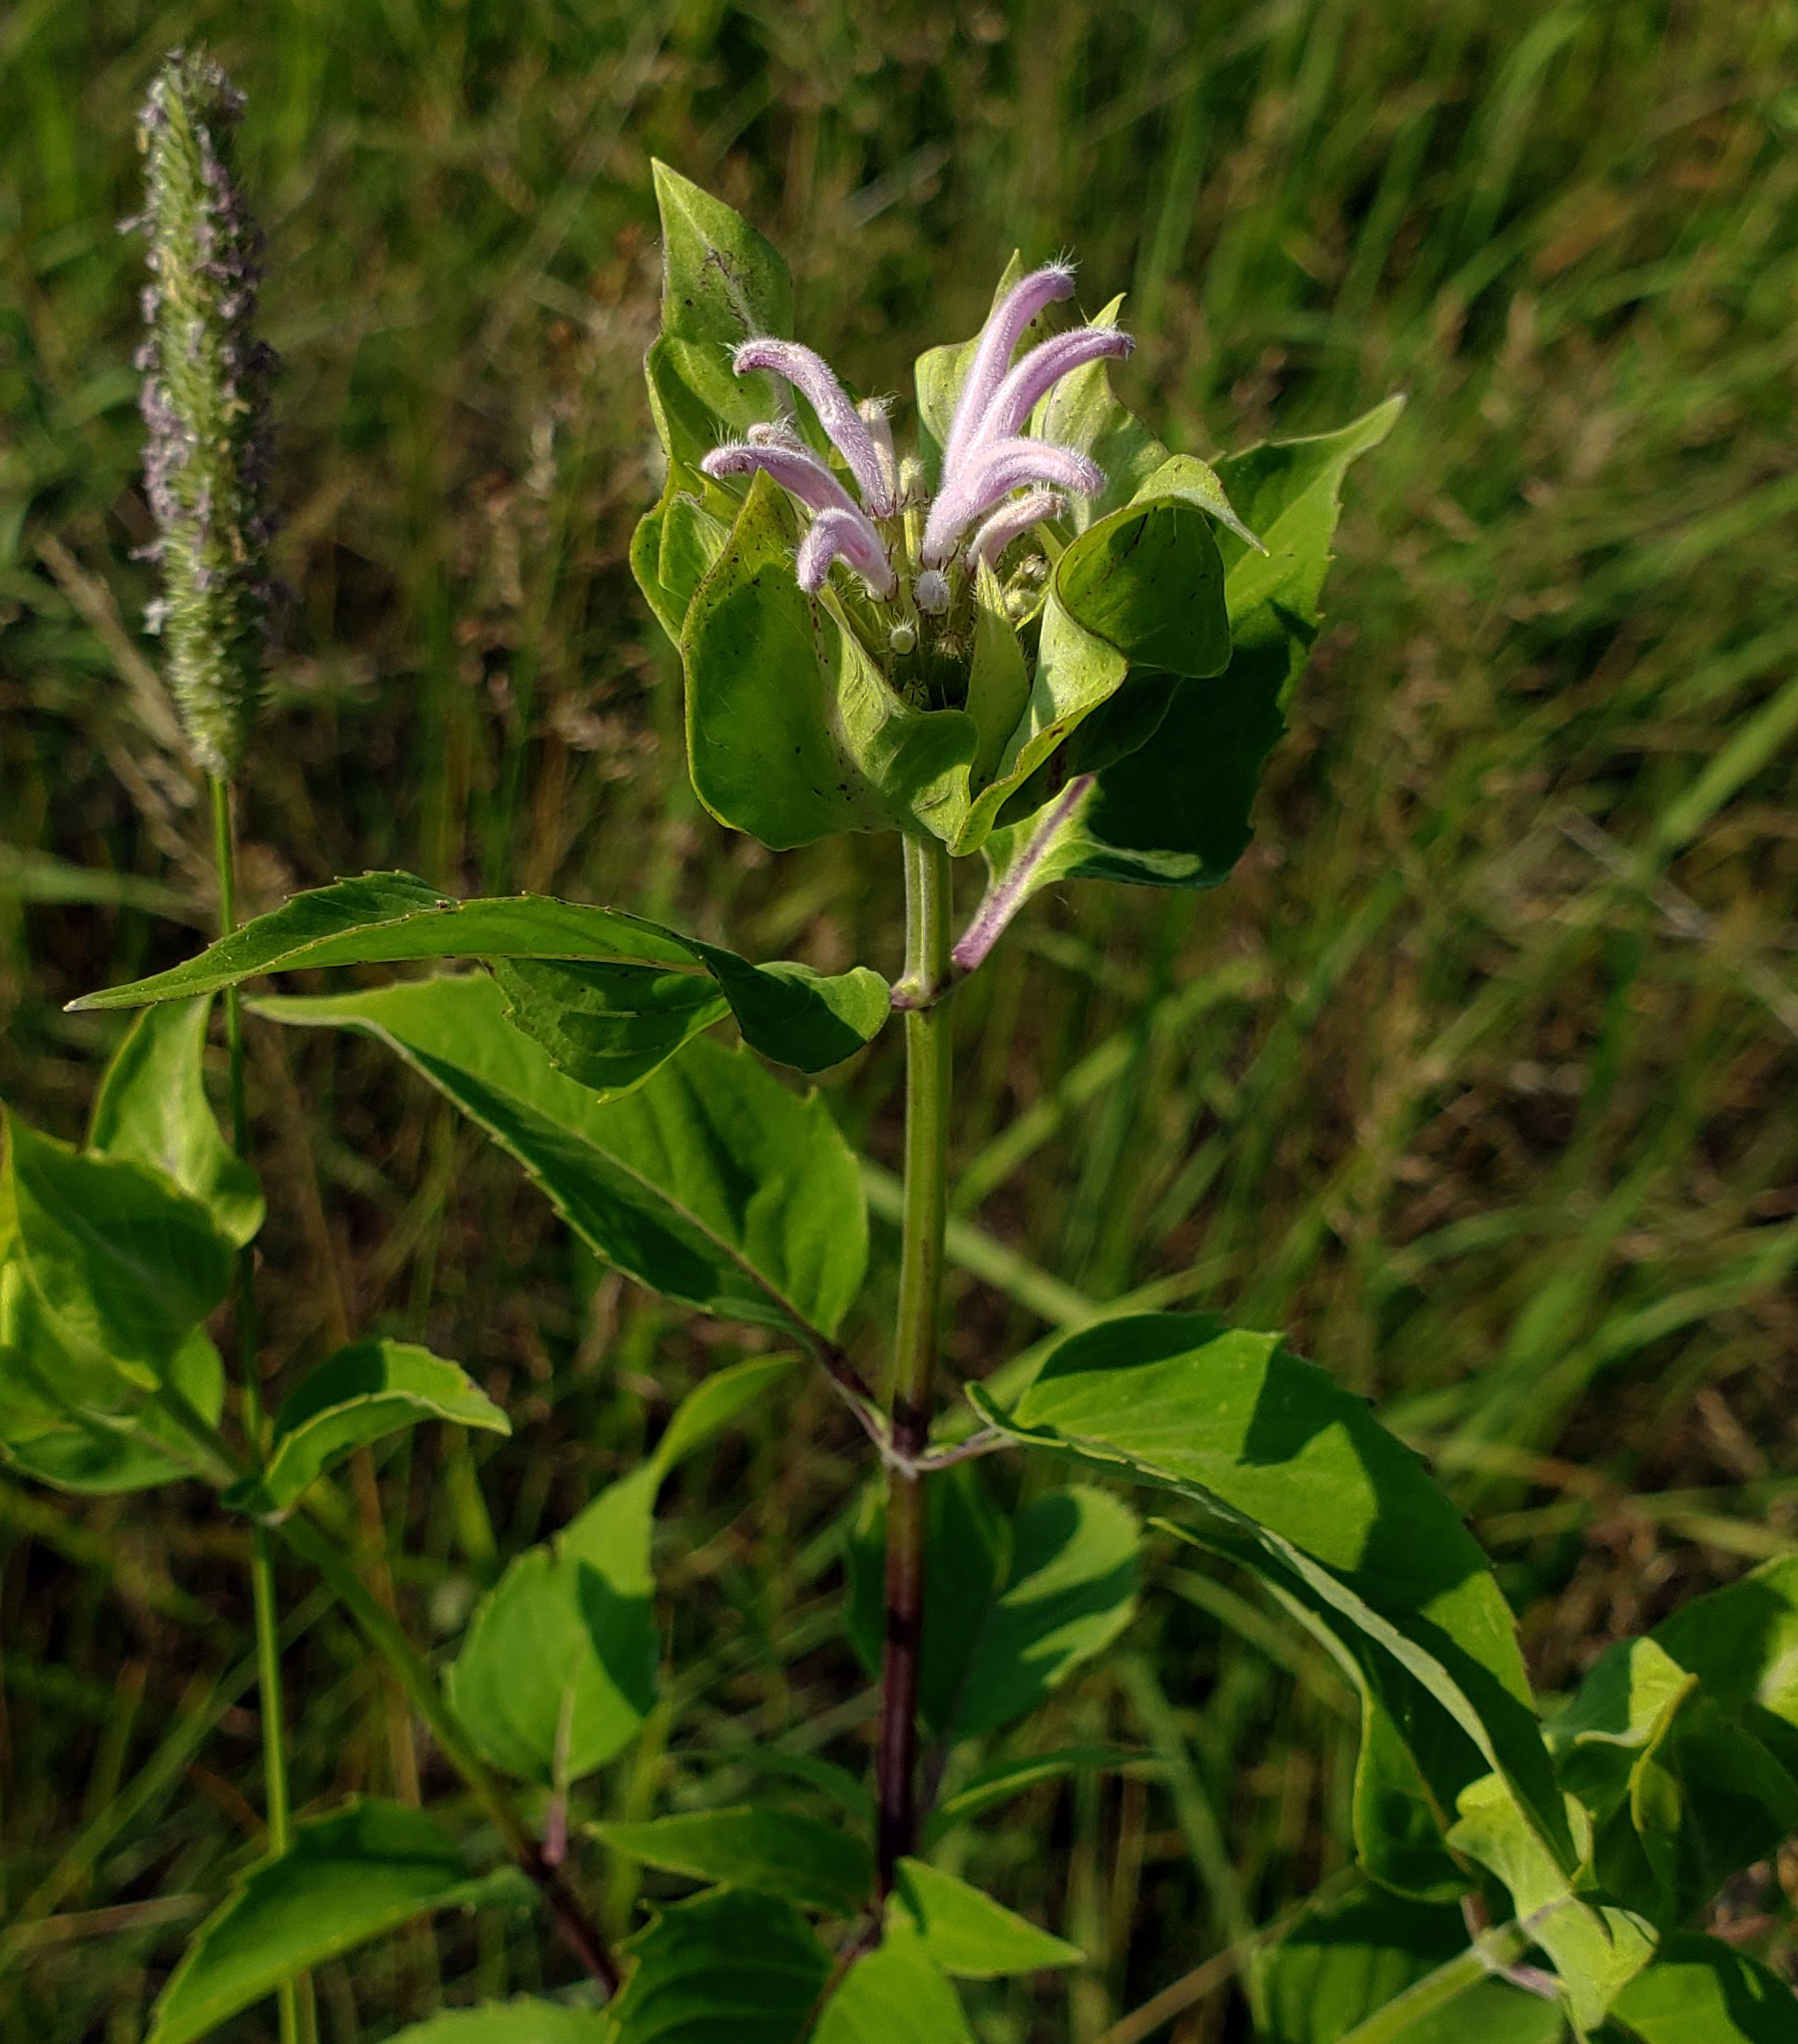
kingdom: Plantae
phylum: Tracheophyta
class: Magnoliopsida
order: Lamiales
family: Lamiaceae
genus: Monarda
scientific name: Monarda fistulosa
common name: Purple beebalm
